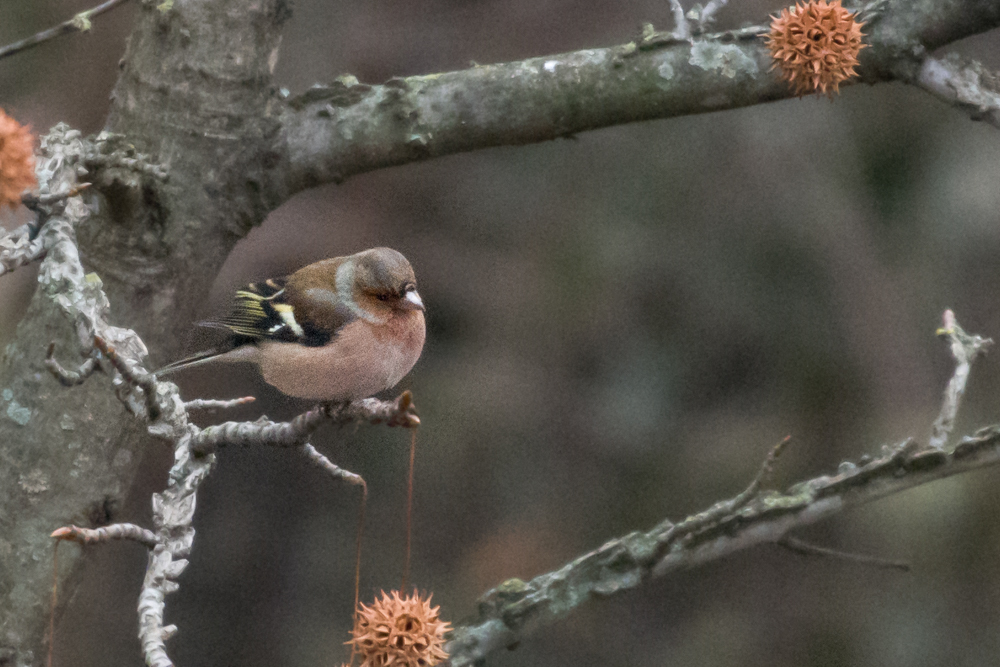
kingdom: Animalia
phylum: Chordata
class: Aves
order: Passeriformes
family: Fringillidae
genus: Fringilla
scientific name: Fringilla coelebs
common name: Common chaffinch
